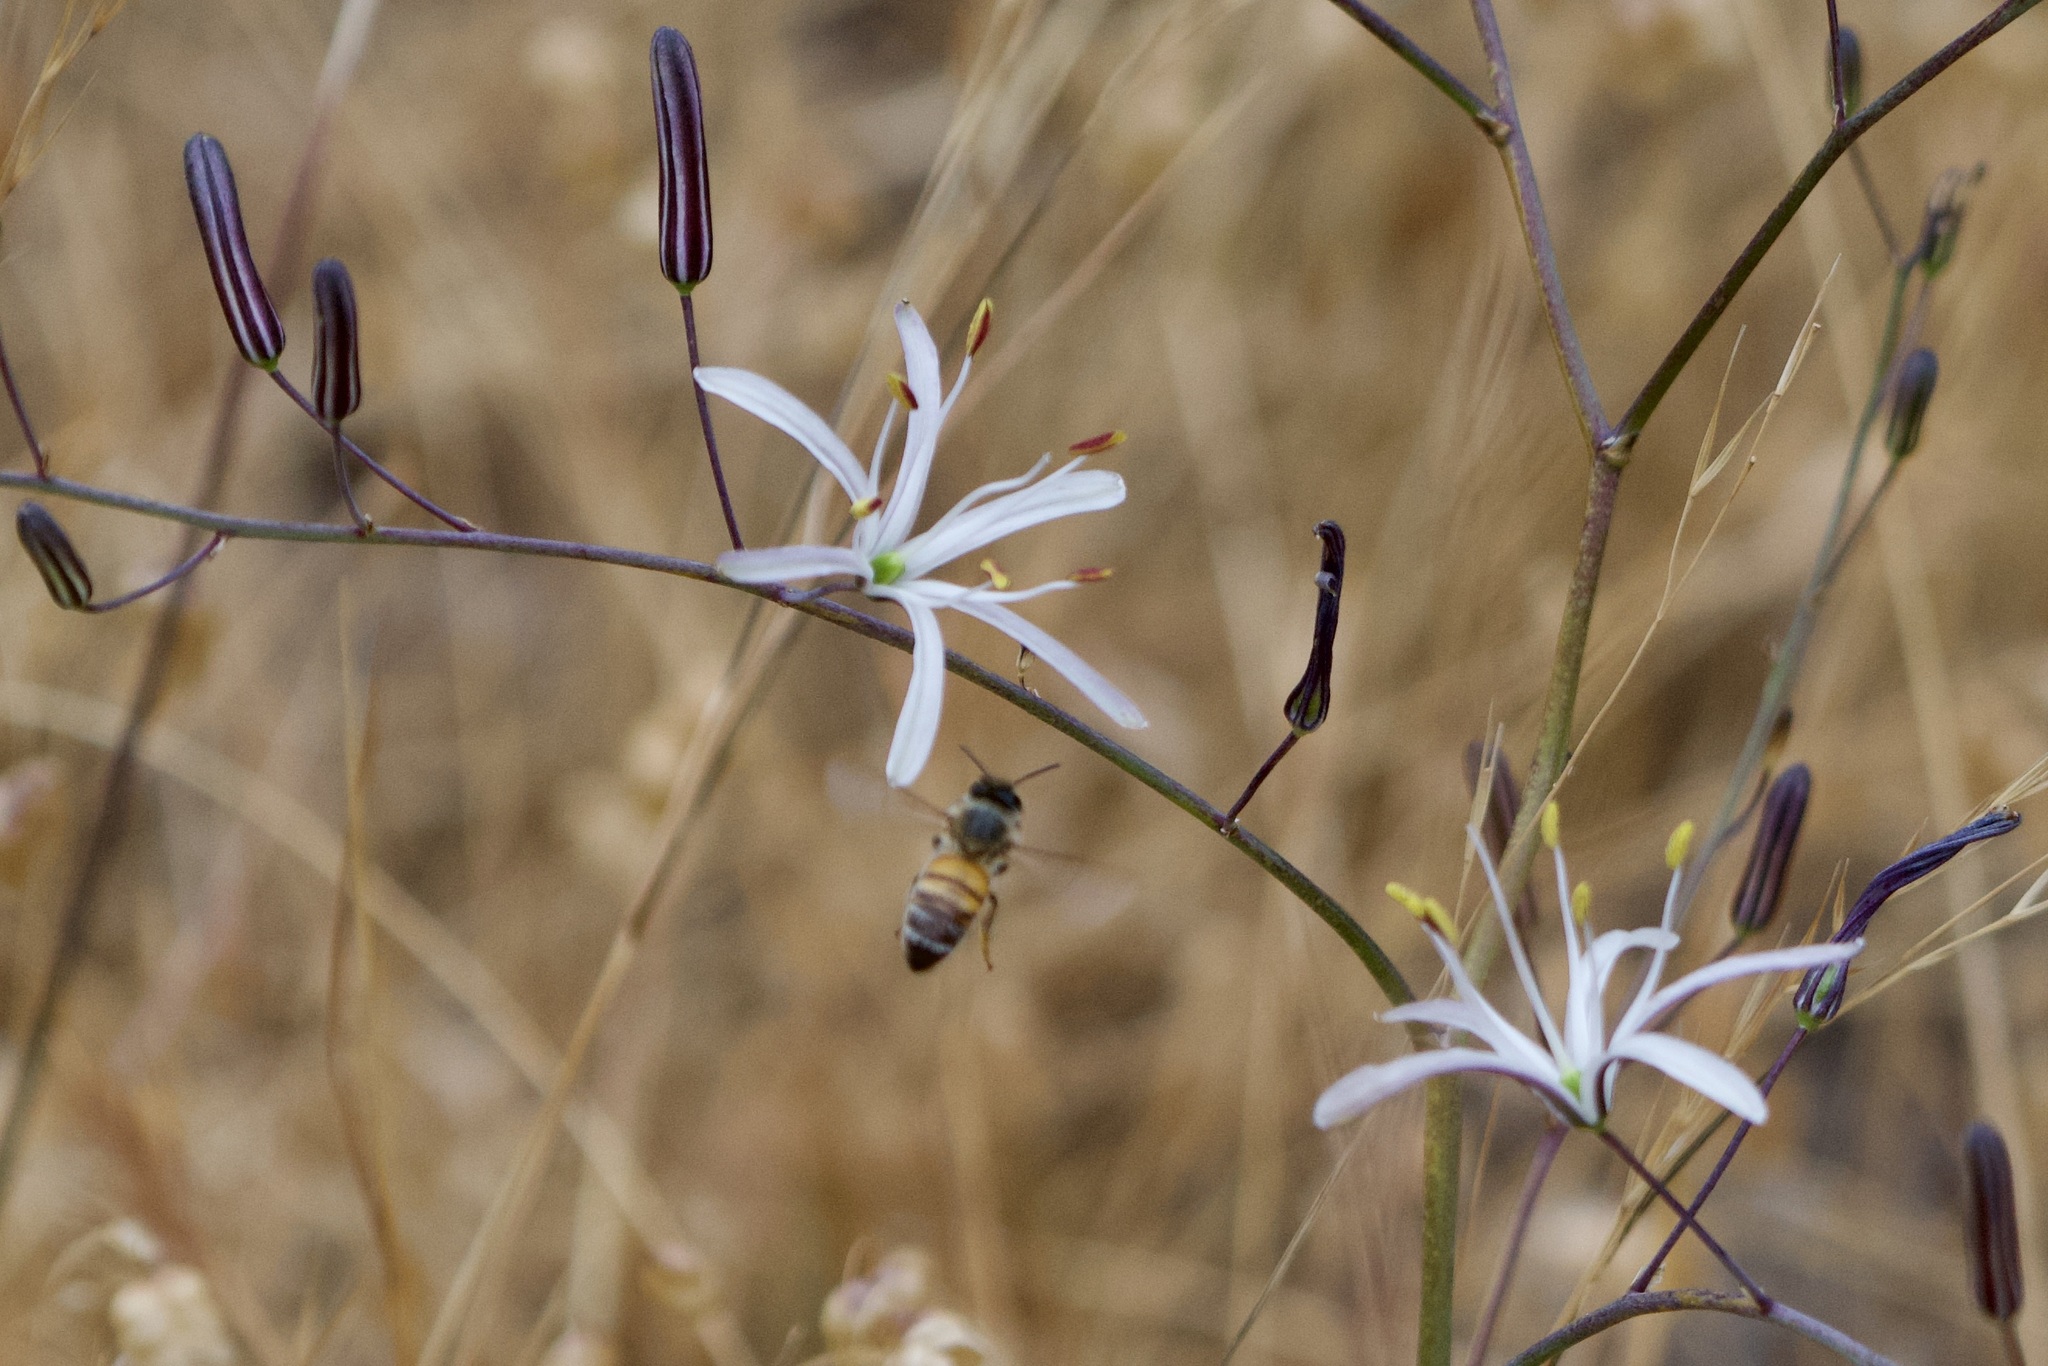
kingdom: Plantae
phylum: Tracheophyta
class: Liliopsida
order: Asparagales
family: Asparagaceae
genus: Chlorogalum
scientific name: Chlorogalum pomeridianum
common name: Amole
